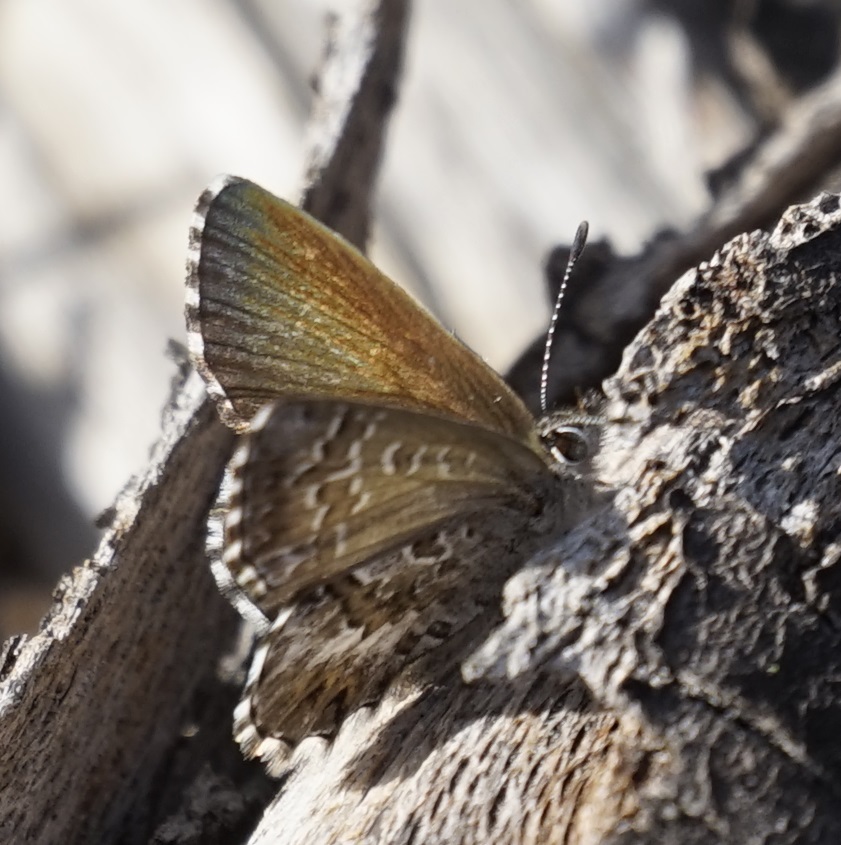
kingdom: Animalia
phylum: Arthropoda
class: Insecta
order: Lepidoptera
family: Lycaenidae
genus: Neolucia
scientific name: Neolucia agricola
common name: Fringed blue
